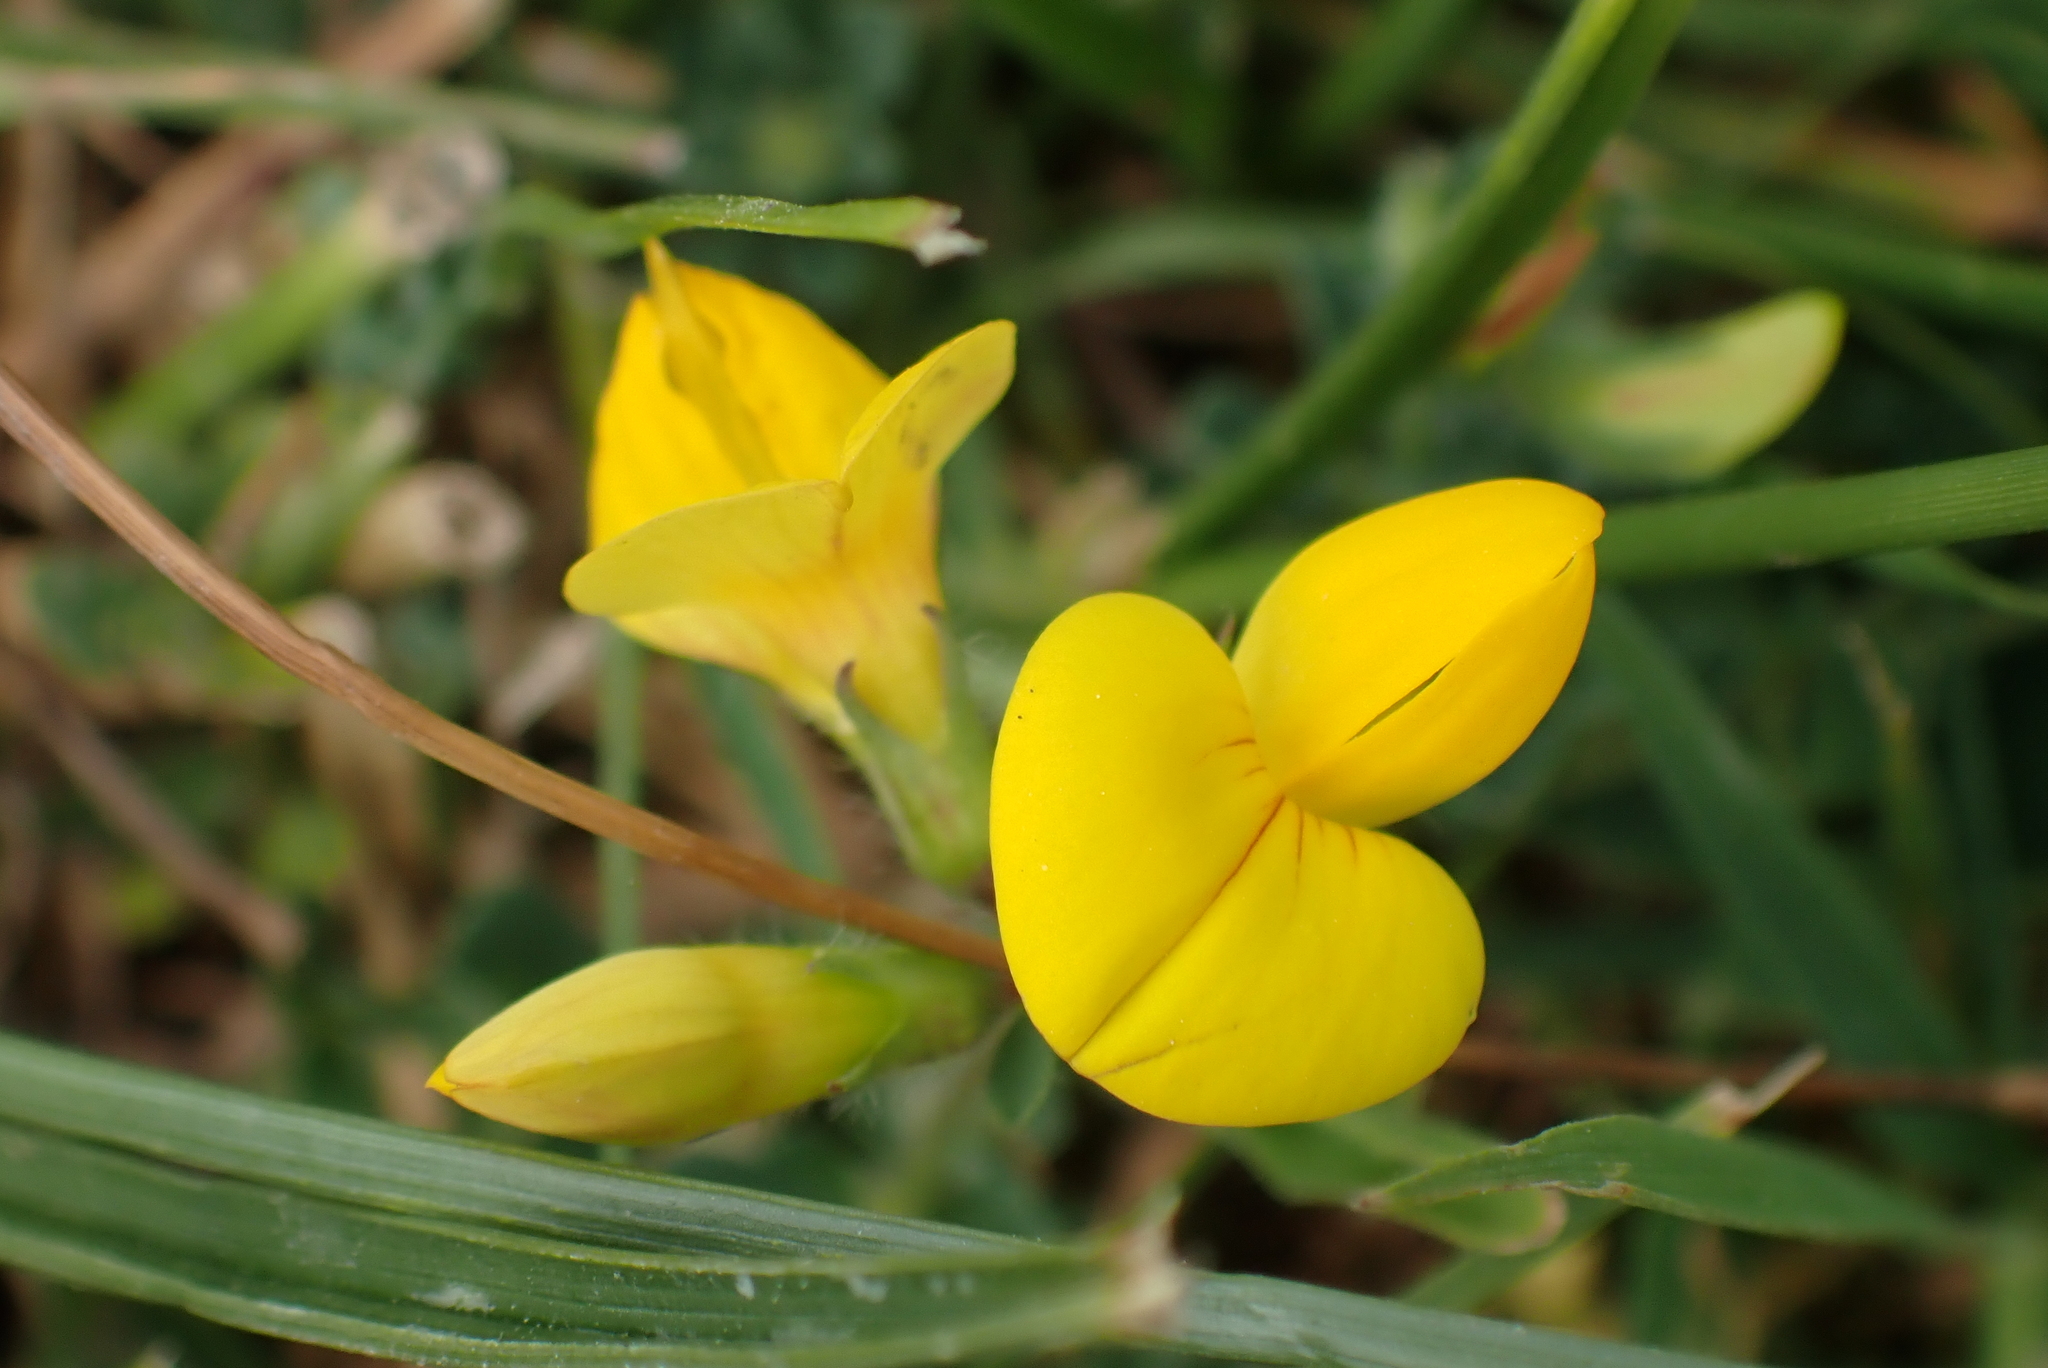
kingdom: Plantae
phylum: Tracheophyta
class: Magnoliopsida
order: Fabales
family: Fabaceae
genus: Lotus
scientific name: Lotus corniculatus
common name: Common bird's-foot-trefoil
